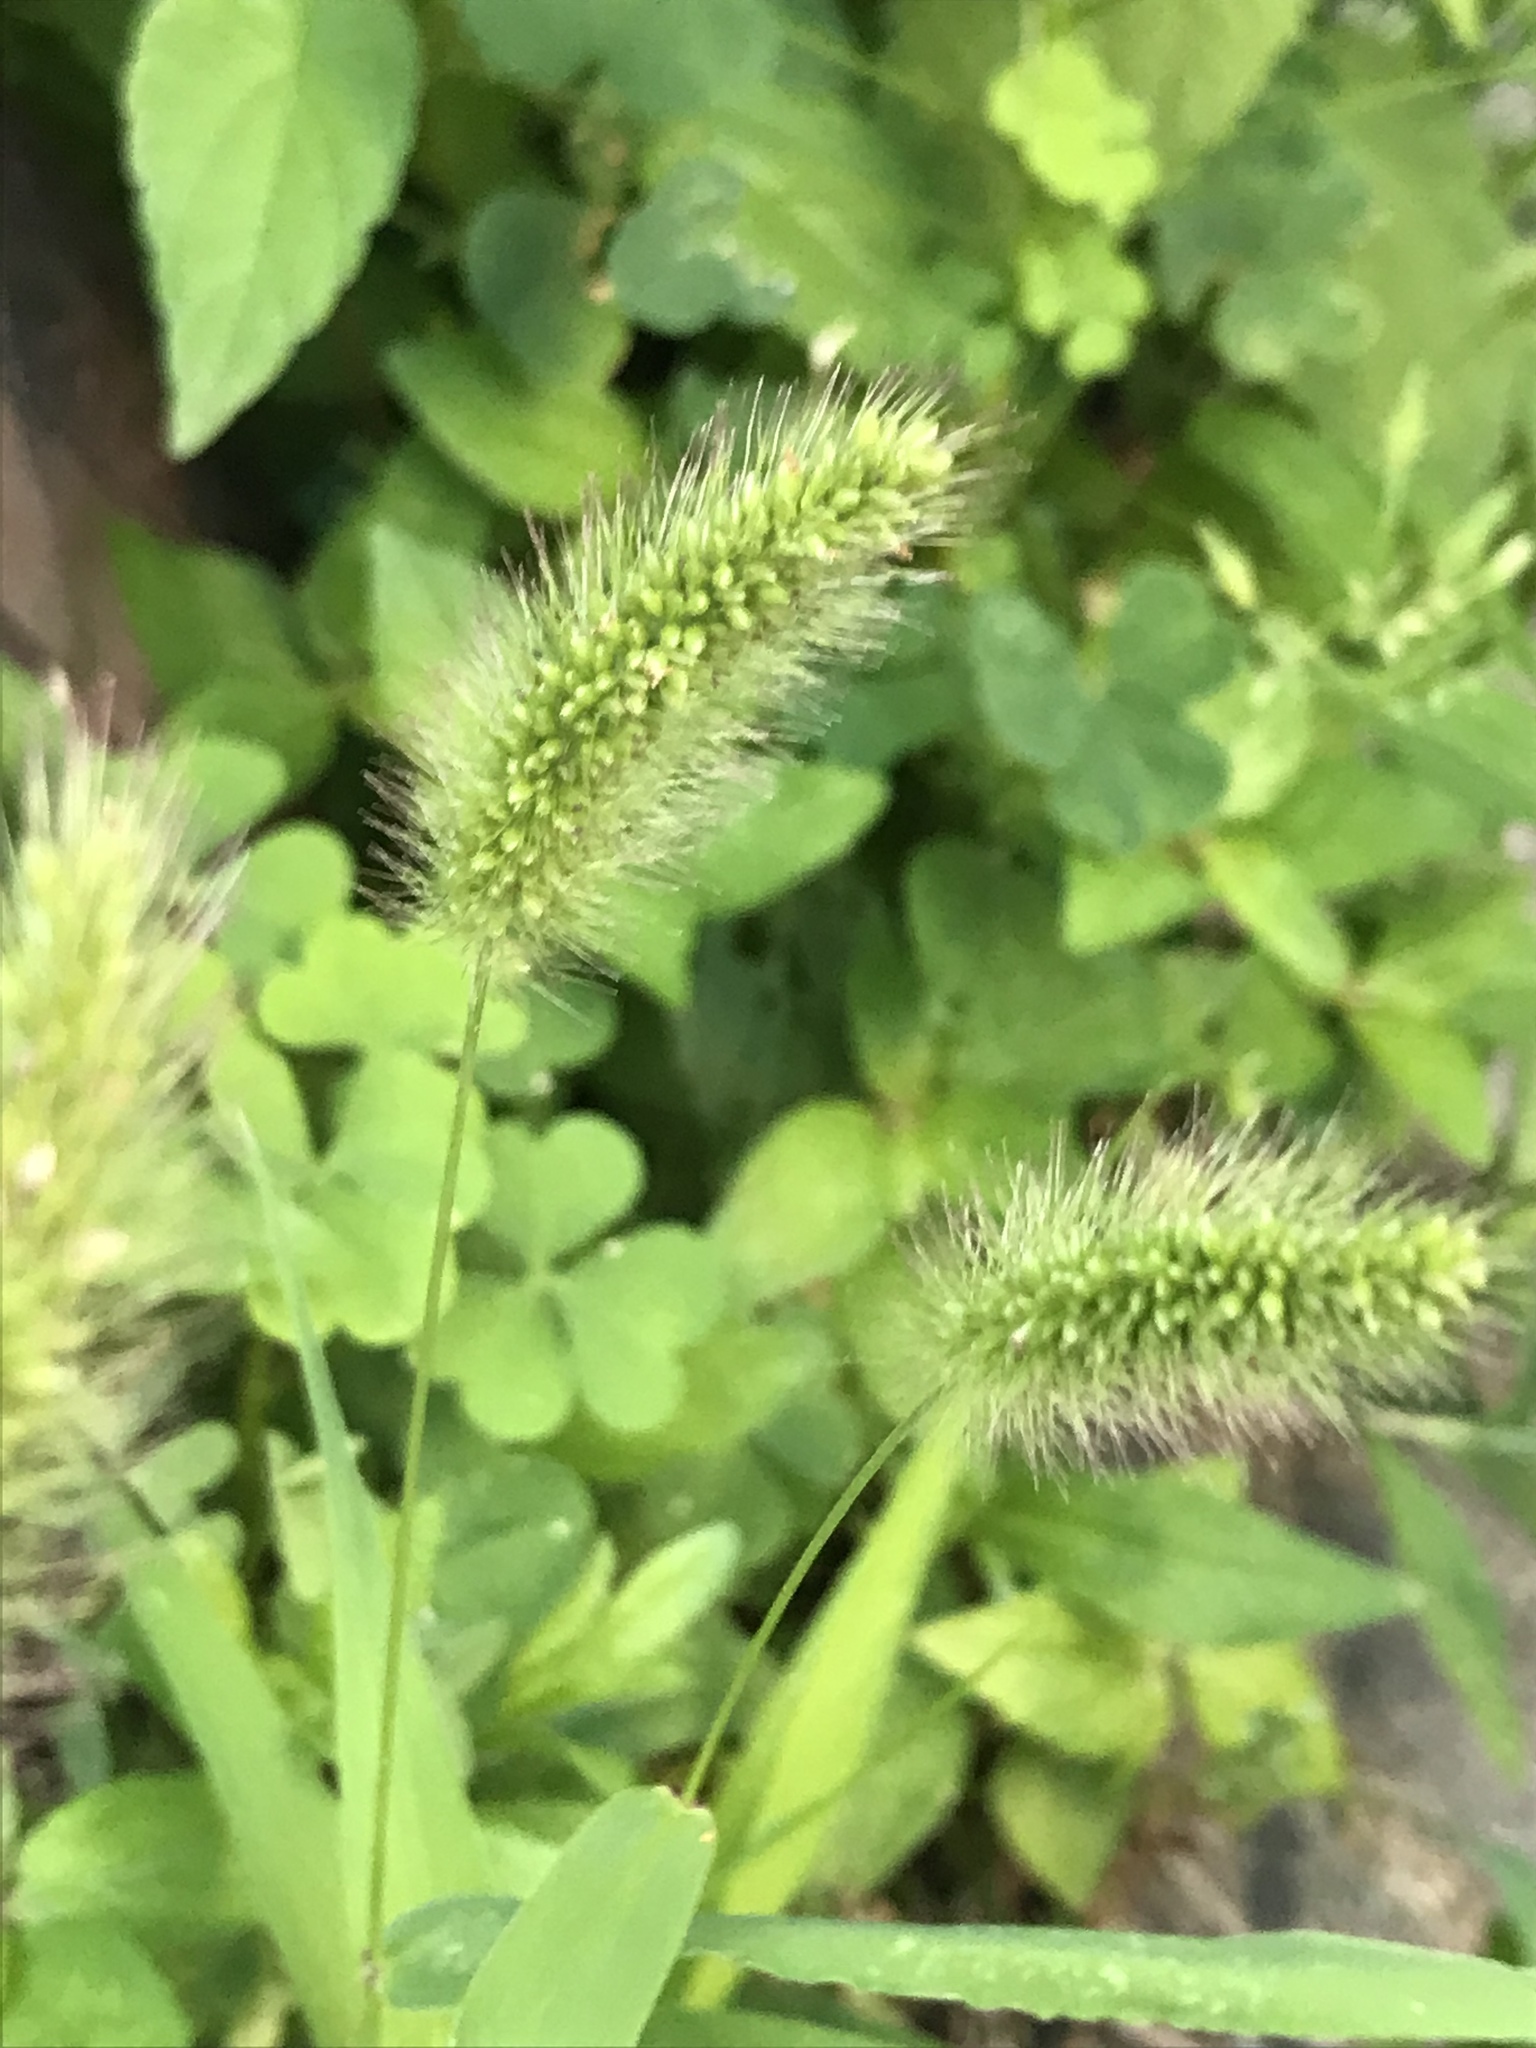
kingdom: Plantae
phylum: Tracheophyta
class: Liliopsida
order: Poales
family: Poaceae
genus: Setaria
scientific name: Setaria viridis
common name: Green bristlegrass
